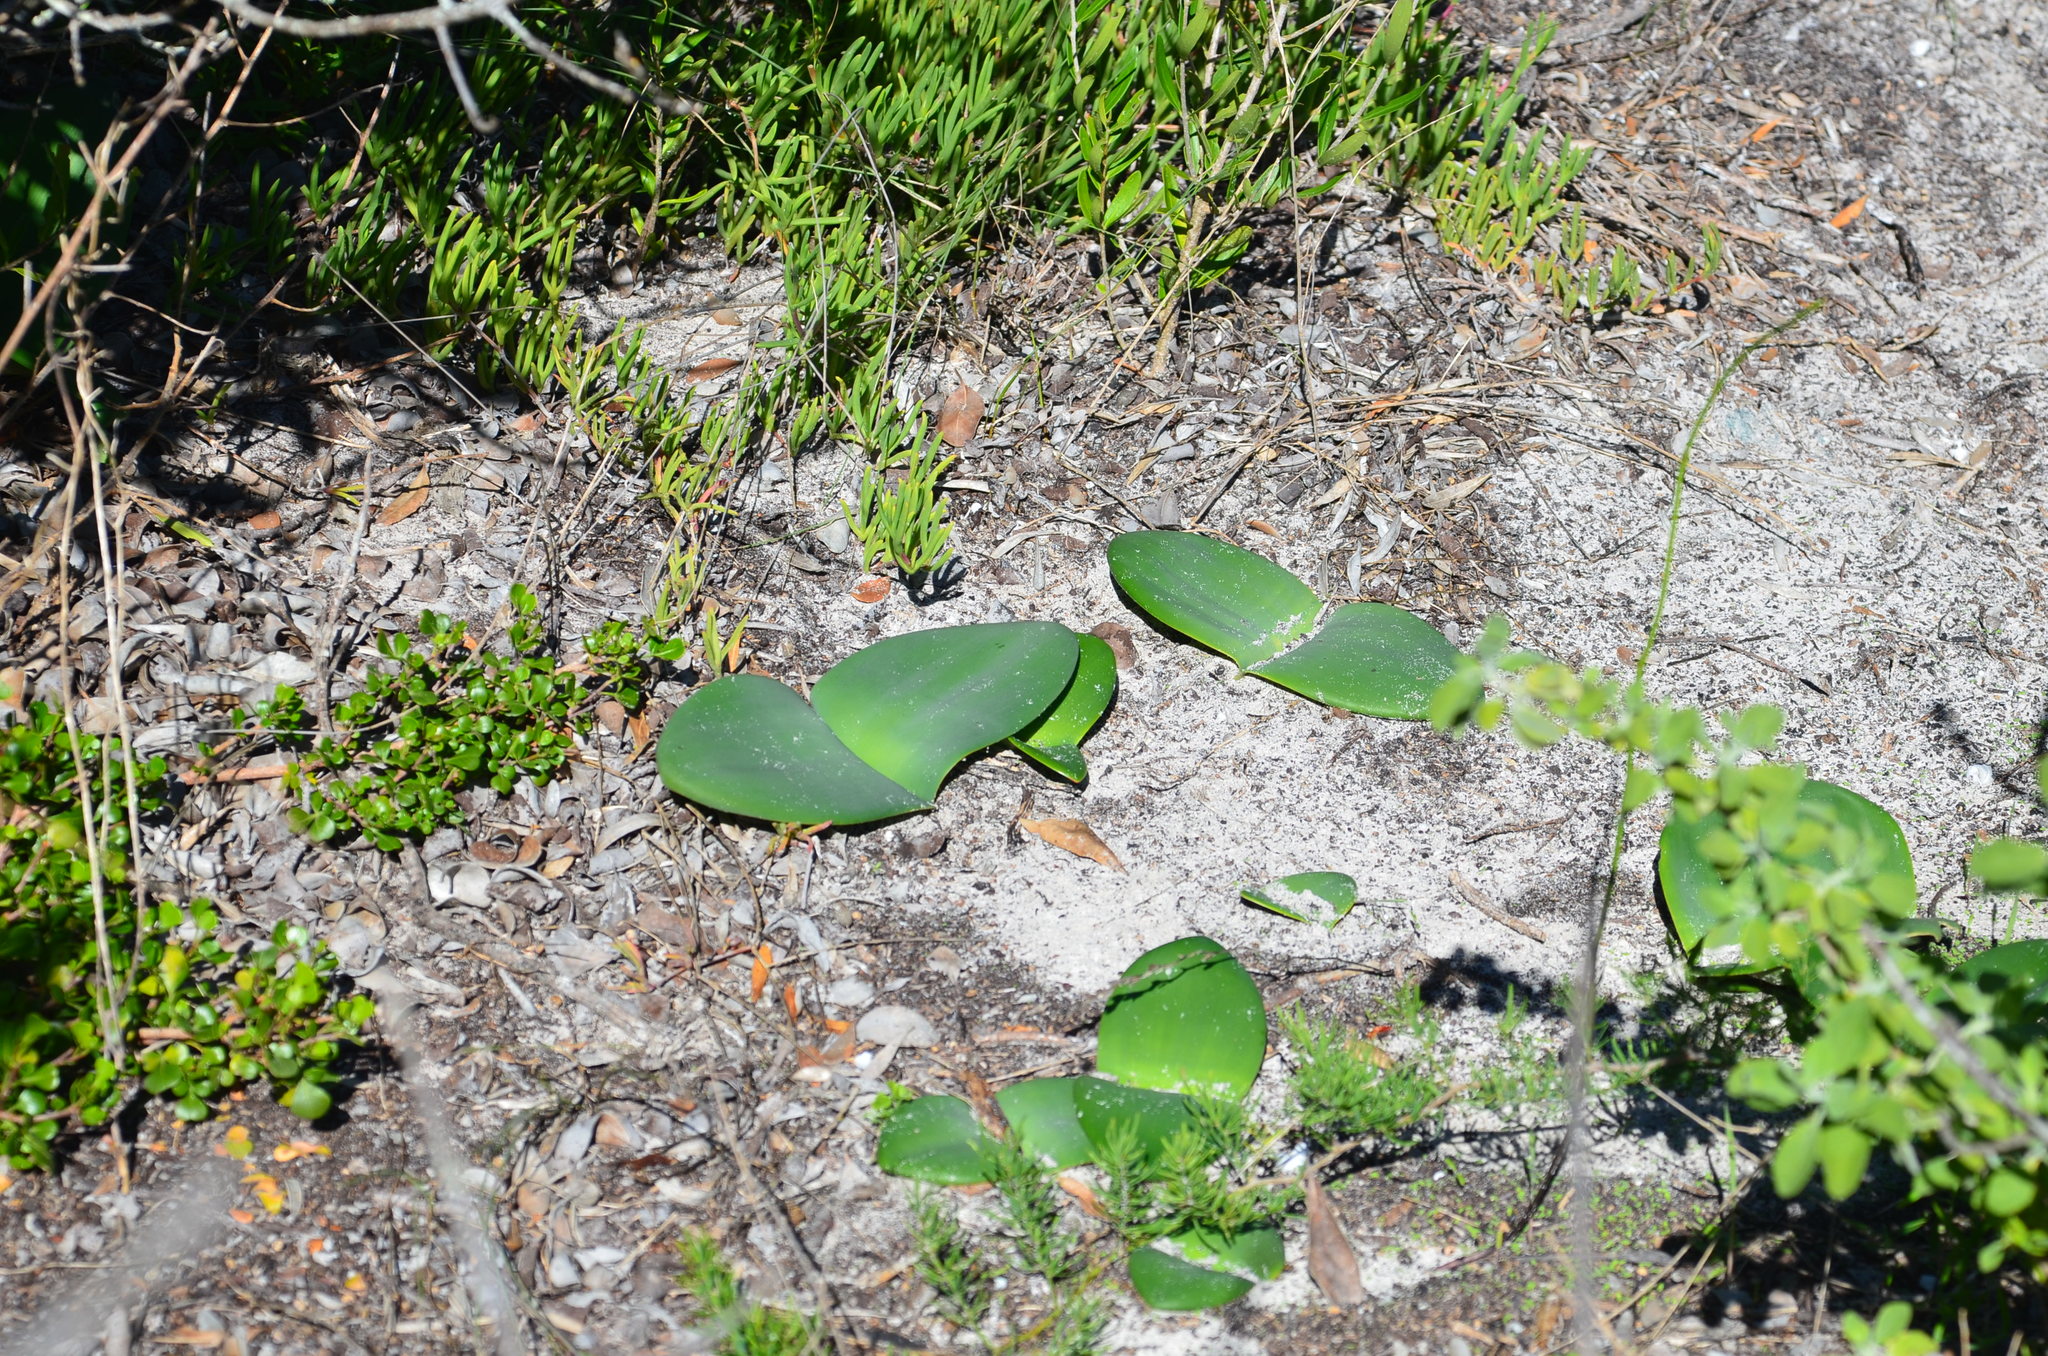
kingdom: Plantae
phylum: Tracheophyta
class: Liliopsida
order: Asparagales
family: Amaryllidaceae
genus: Haemanthus
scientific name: Haemanthus sanguineus
